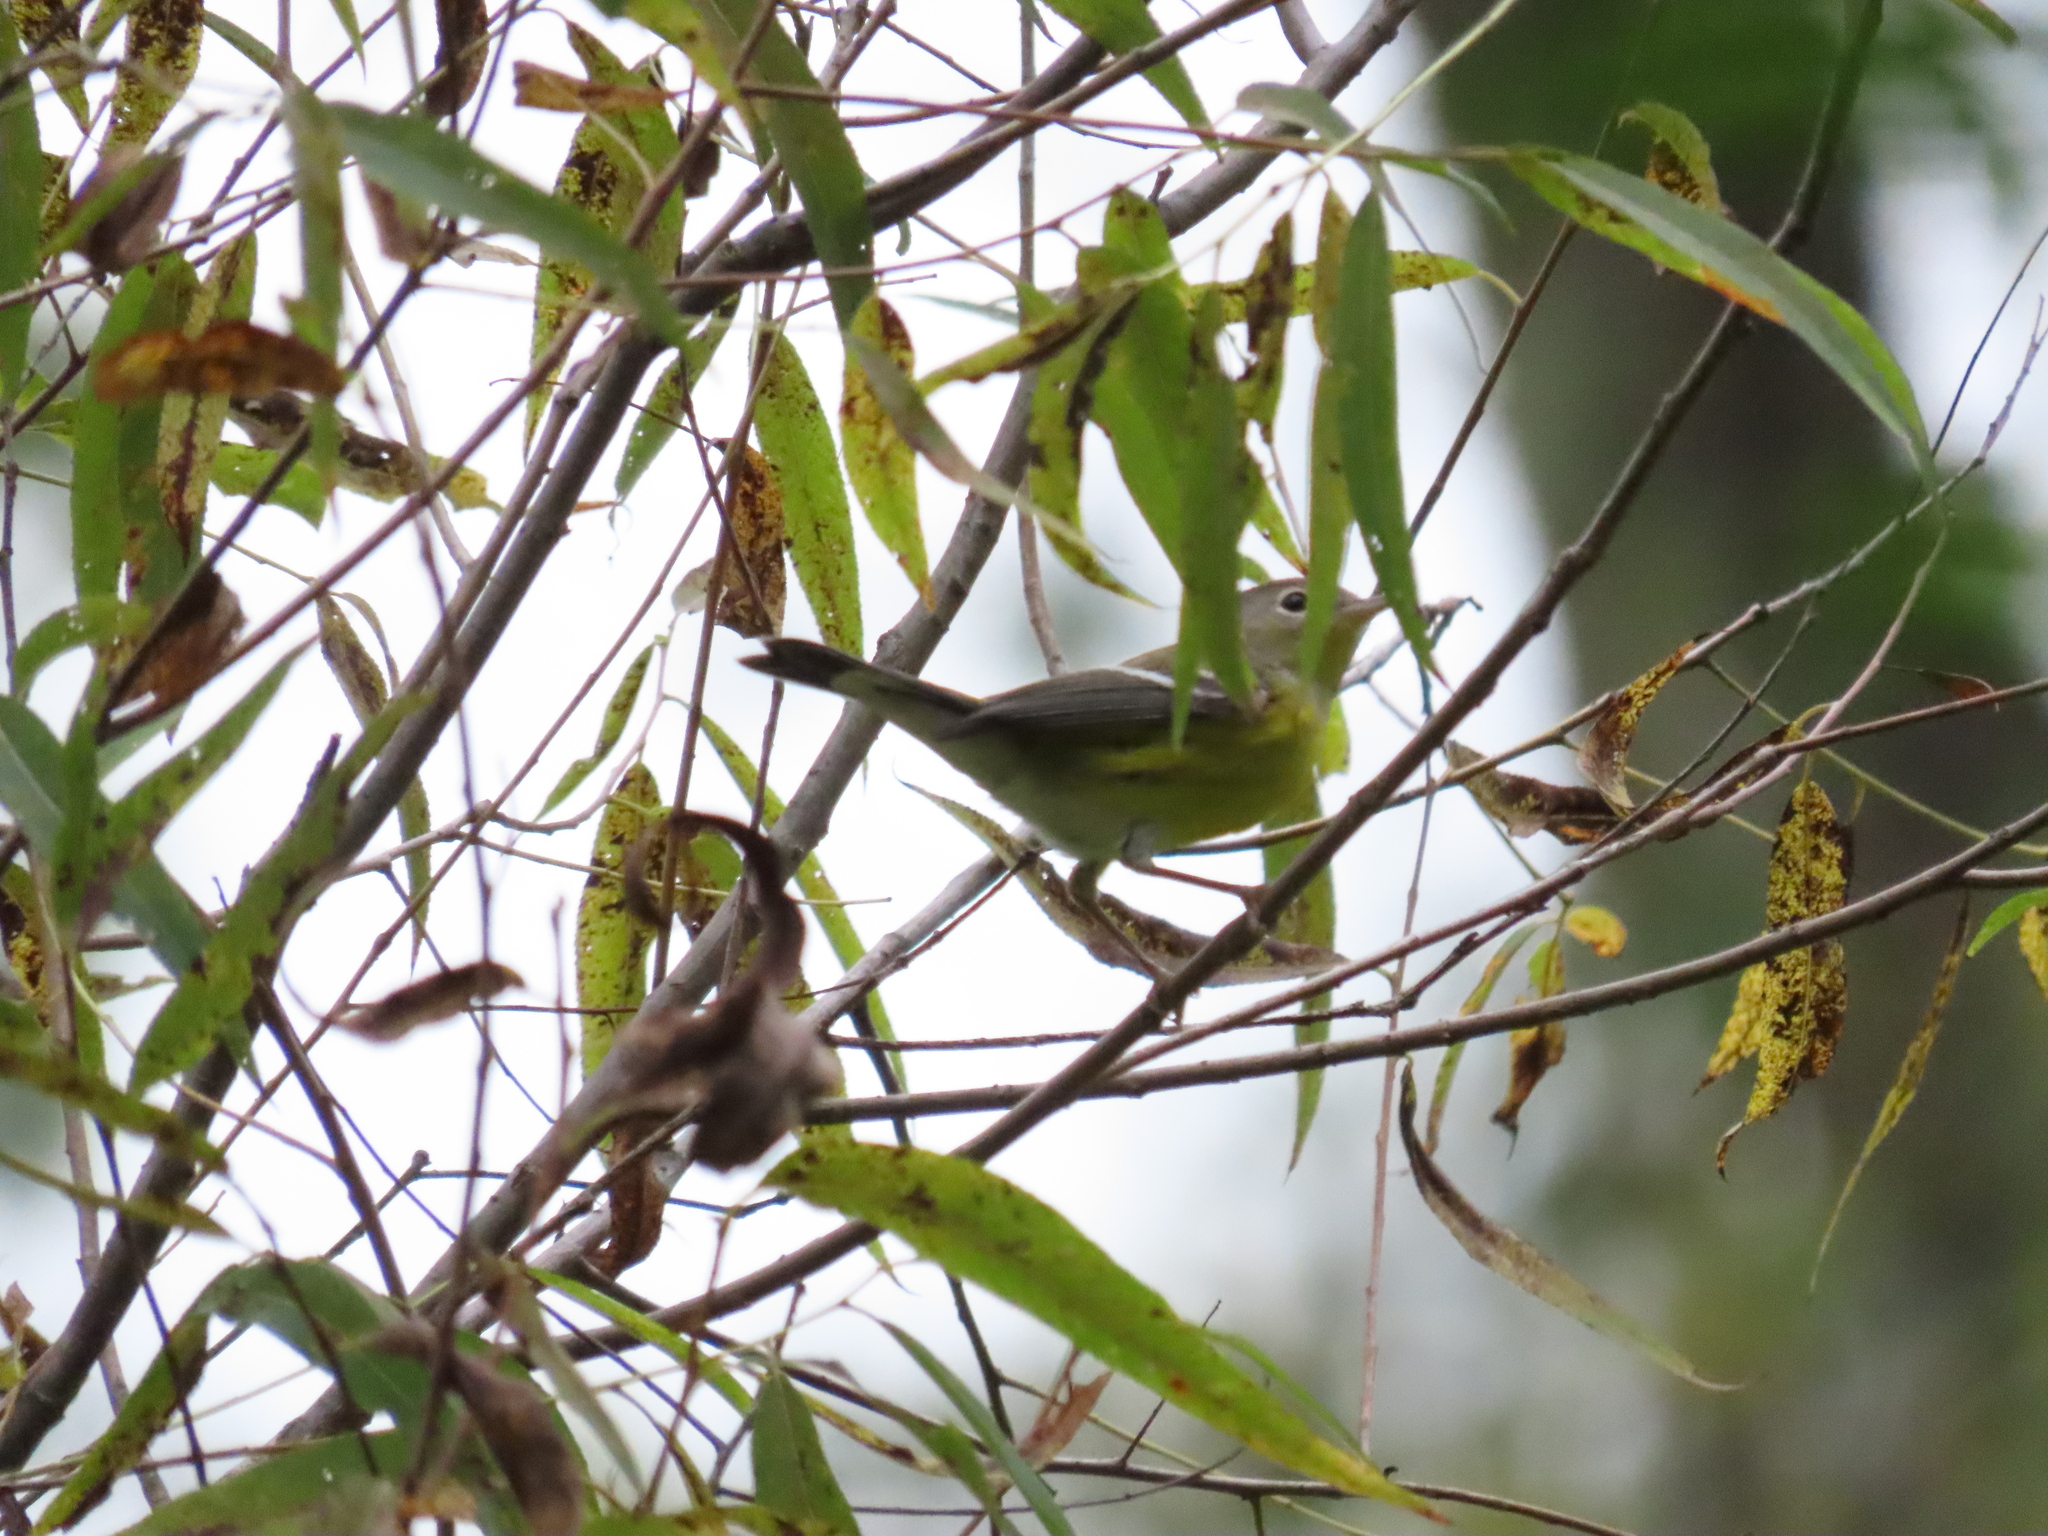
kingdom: Animalia
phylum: Chordata
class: Aves
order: Passeriformes
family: Parulidae
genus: Setophaga
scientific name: Setophaga magnolia
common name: Magnolia warbler
